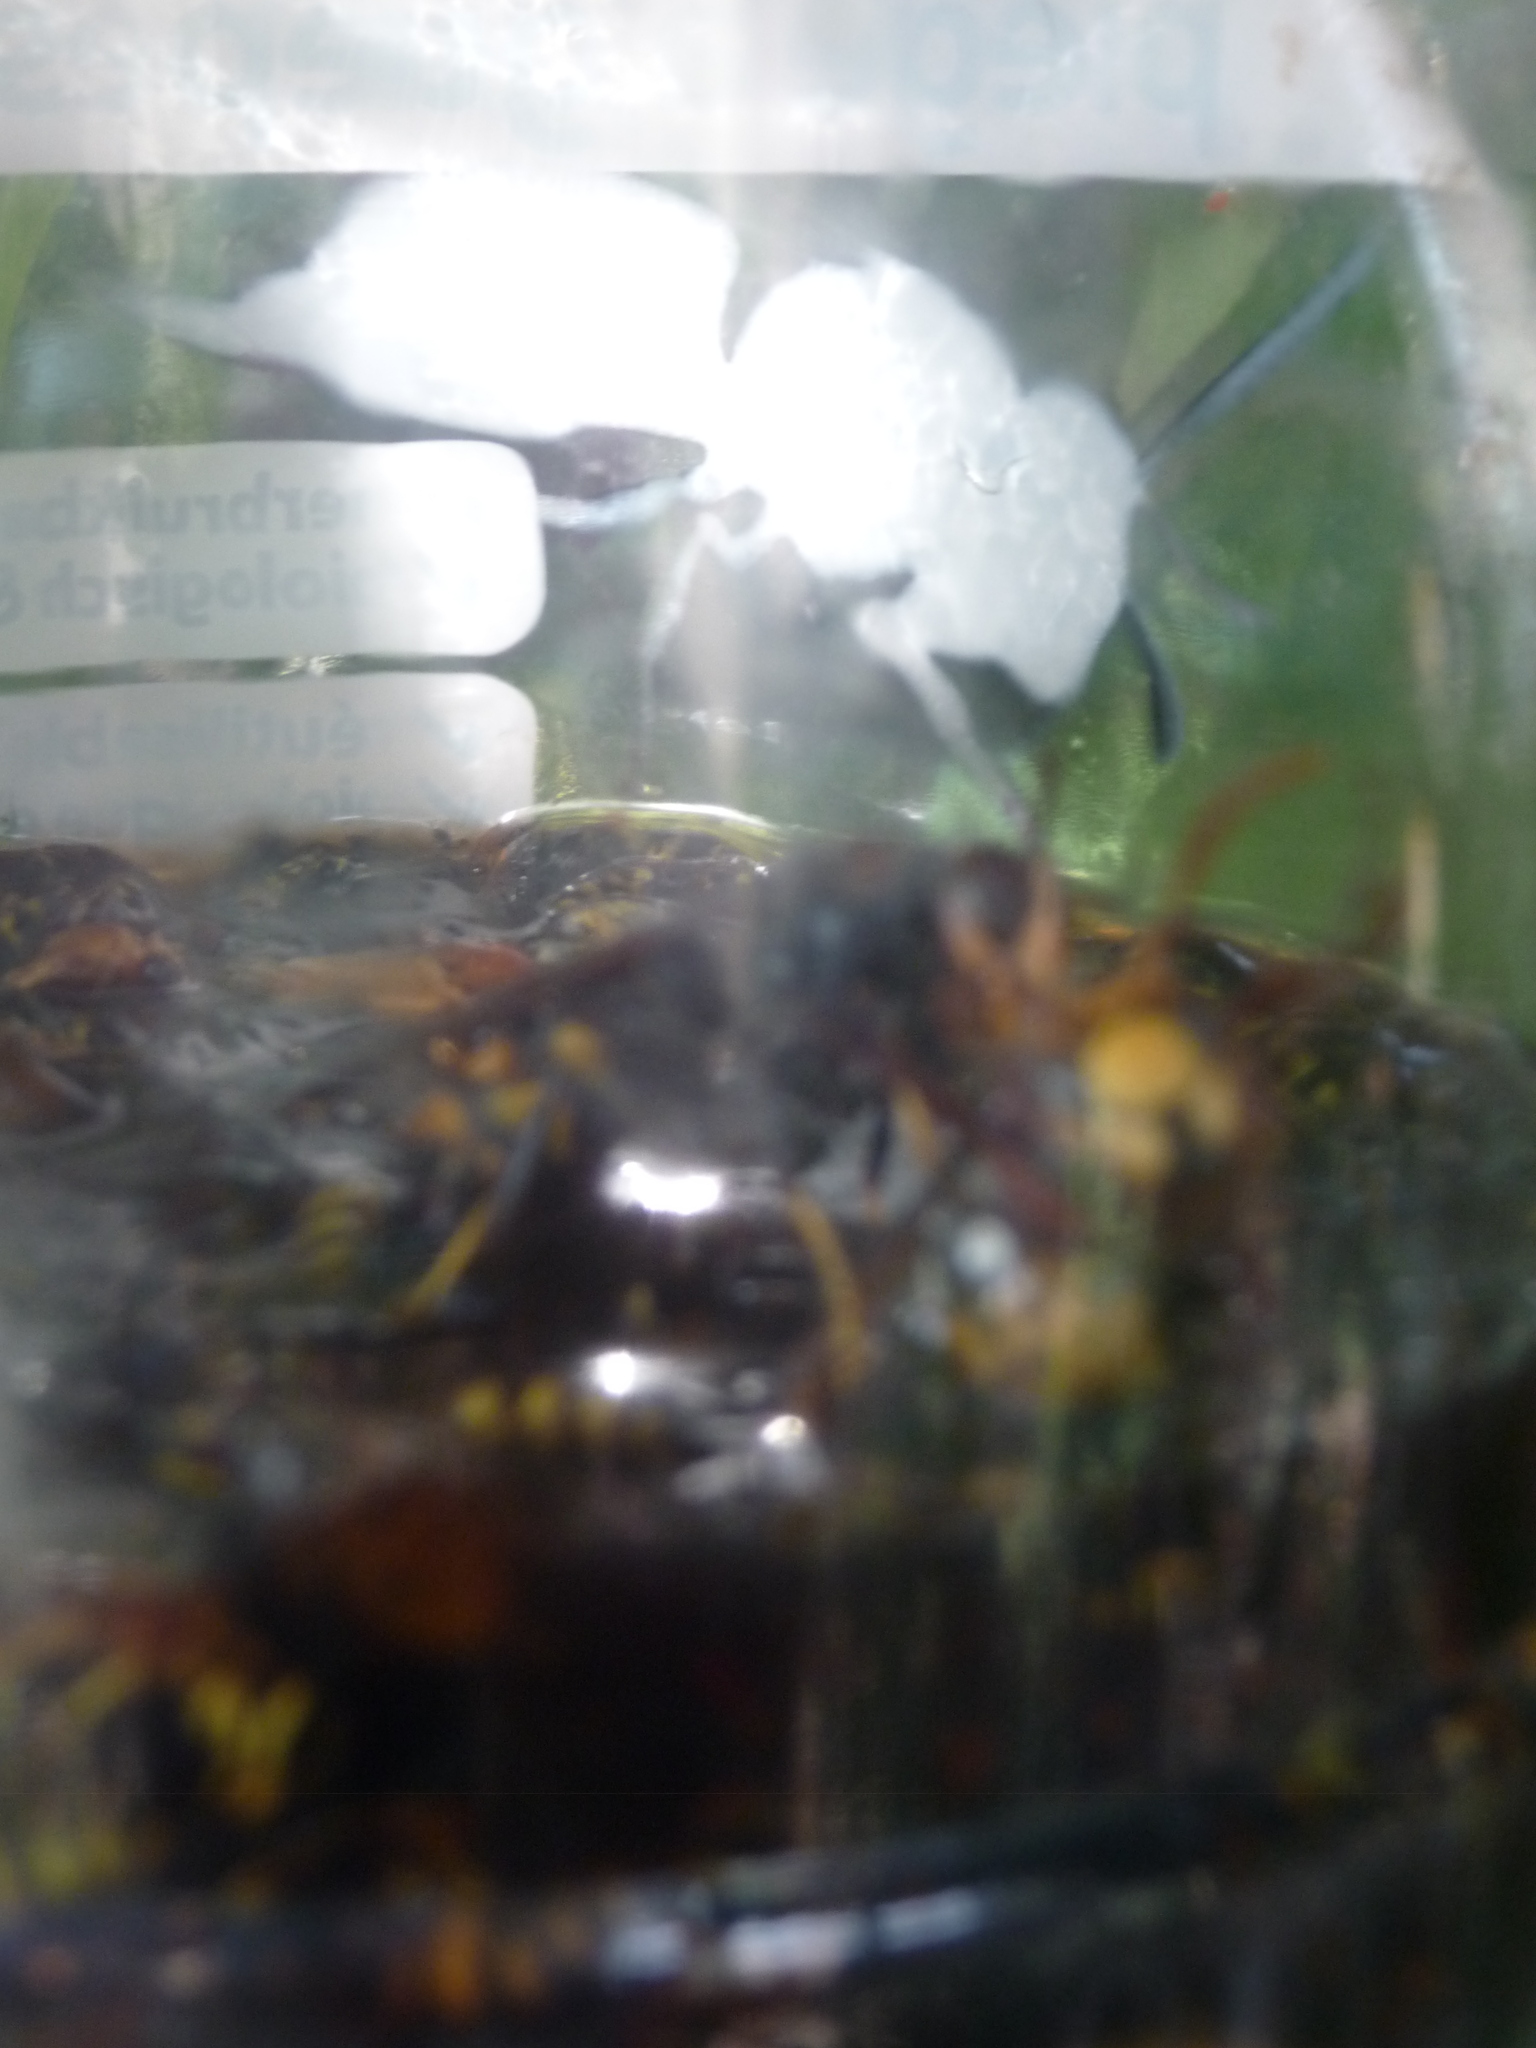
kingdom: Animalia
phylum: Arthropoda
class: Insecta
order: Hymenoptera
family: Vespidae
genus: Vespa
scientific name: Vespa velutina
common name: Asian hornet
